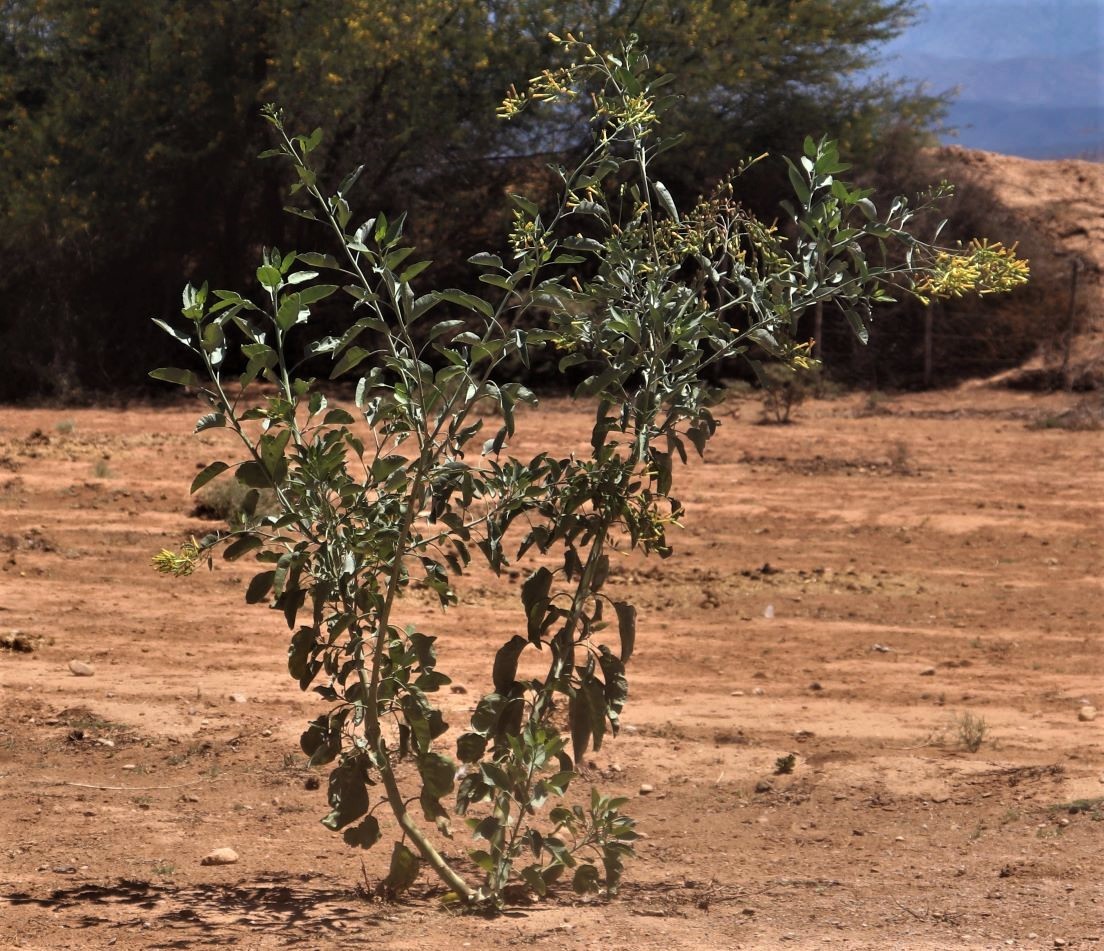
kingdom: Plantae
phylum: Tracheophyta
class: Magnoliopsida
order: Solanales
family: Solanaceae
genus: Nicotiana
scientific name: Nicotiana glauca
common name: Tree tobacco
